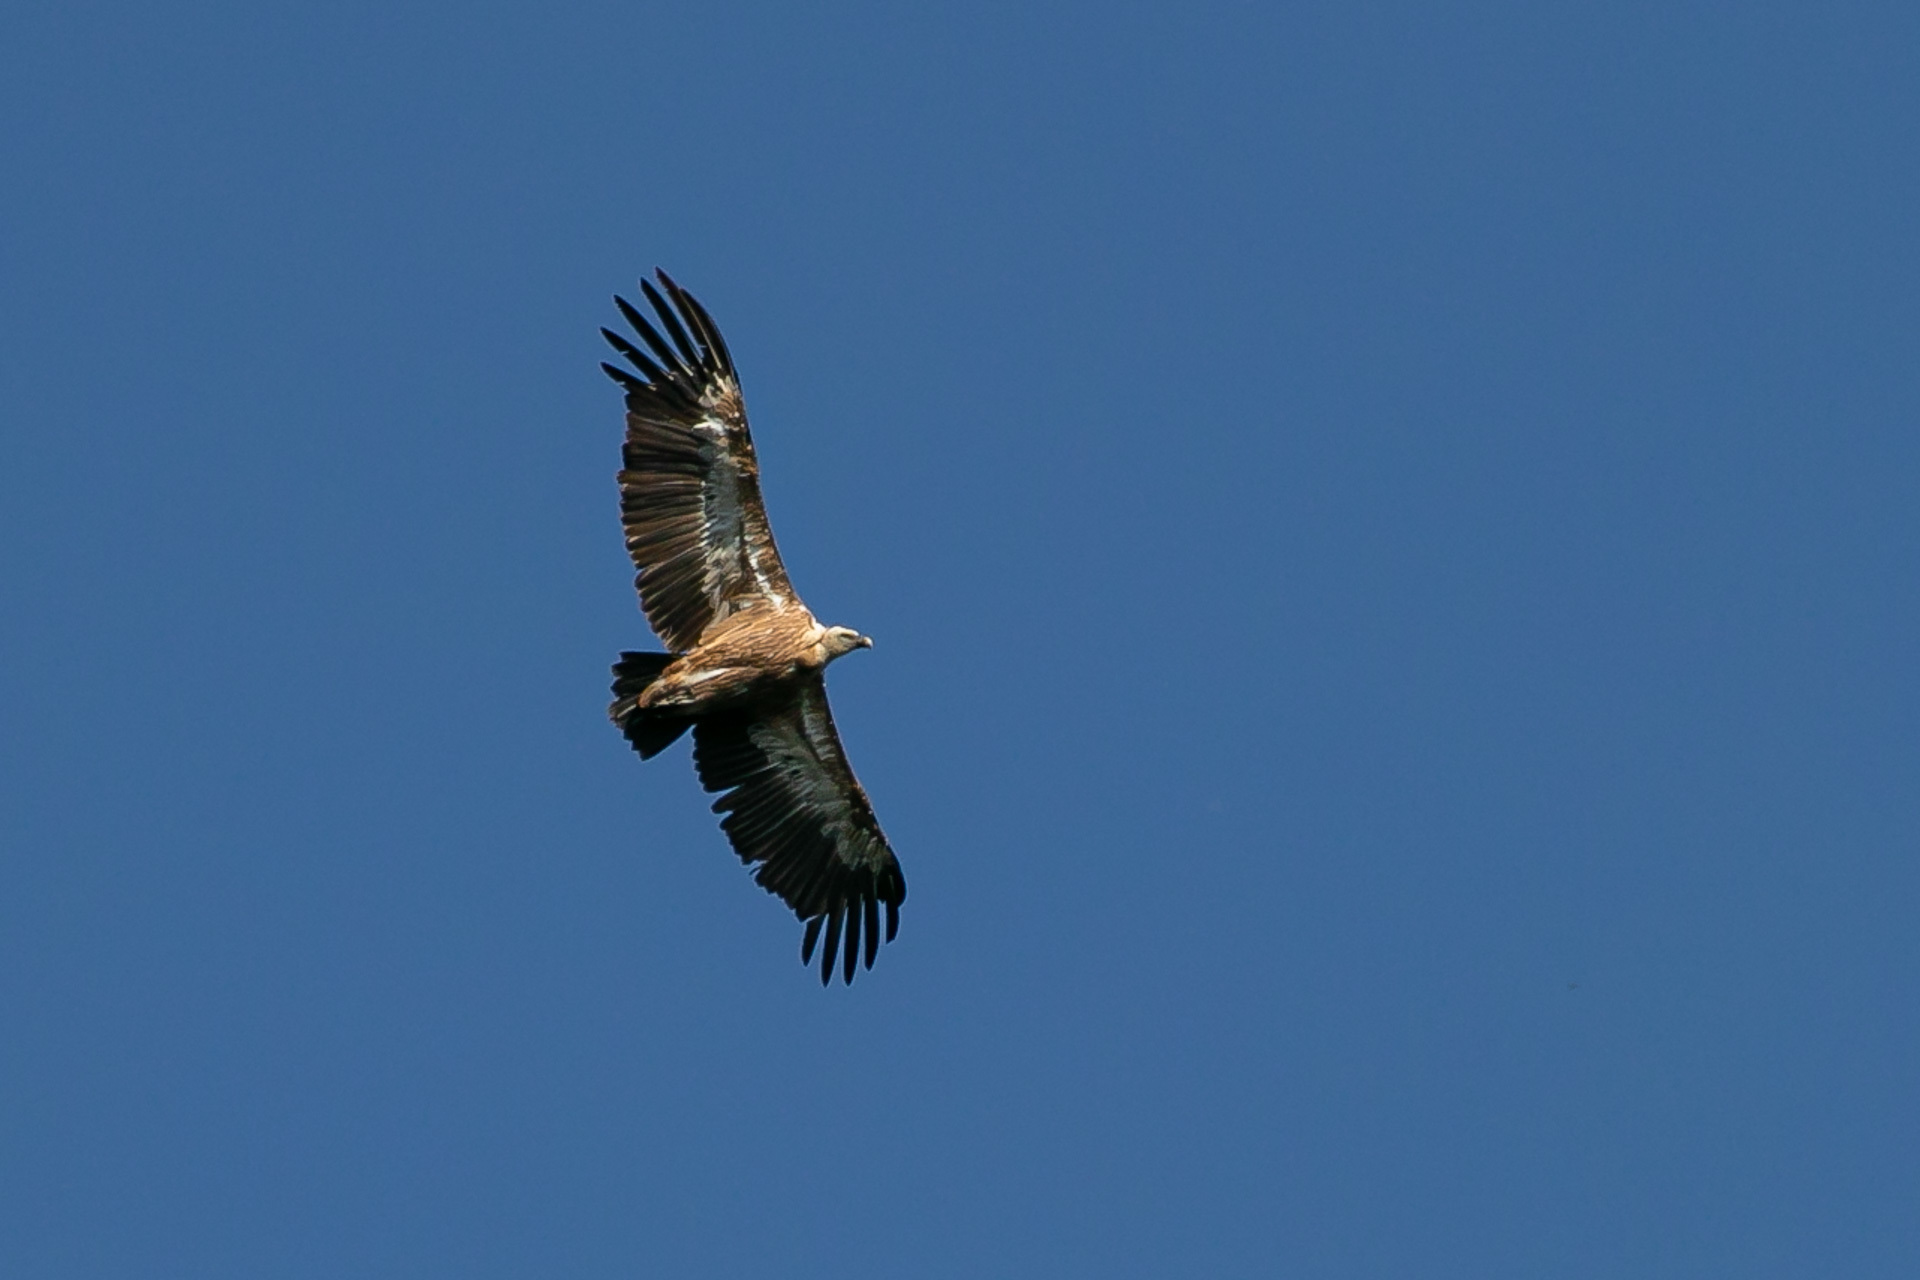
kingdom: Animalia
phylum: Chordata
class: Aves
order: Accipitriformes
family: Accipitridae
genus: Gyps
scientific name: Gyps fulvus
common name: Griffon vulture
